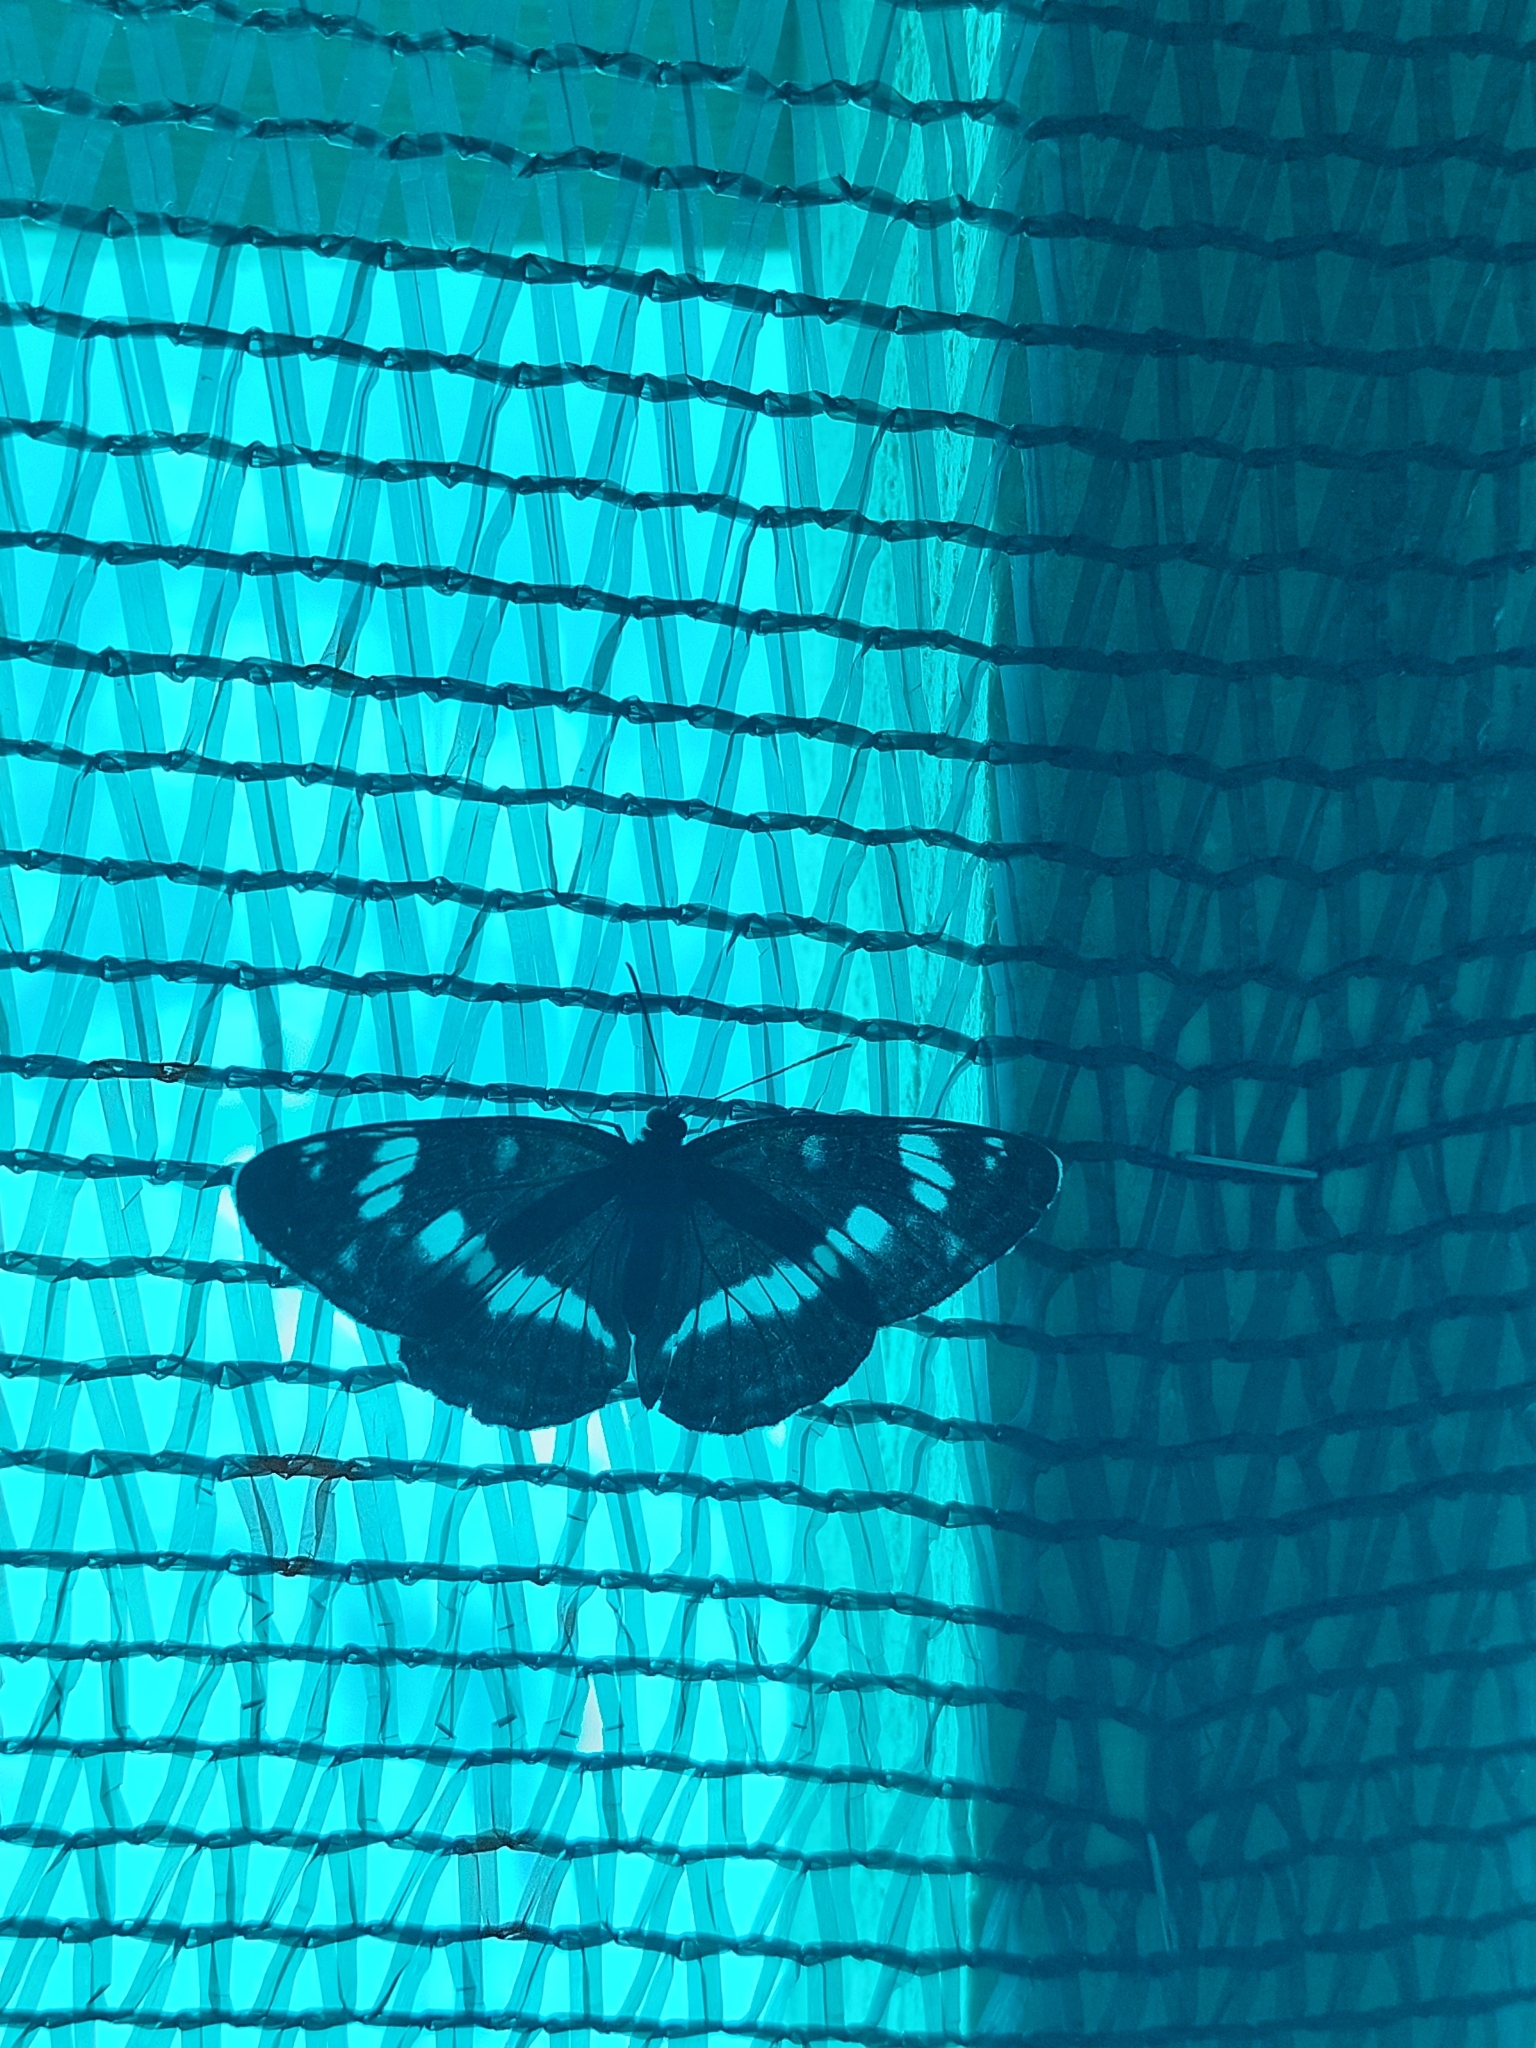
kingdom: Animalia
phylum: Arthropoda
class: Insecta
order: Lepidoptera
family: Nymphalidae
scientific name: Nymphalidae
